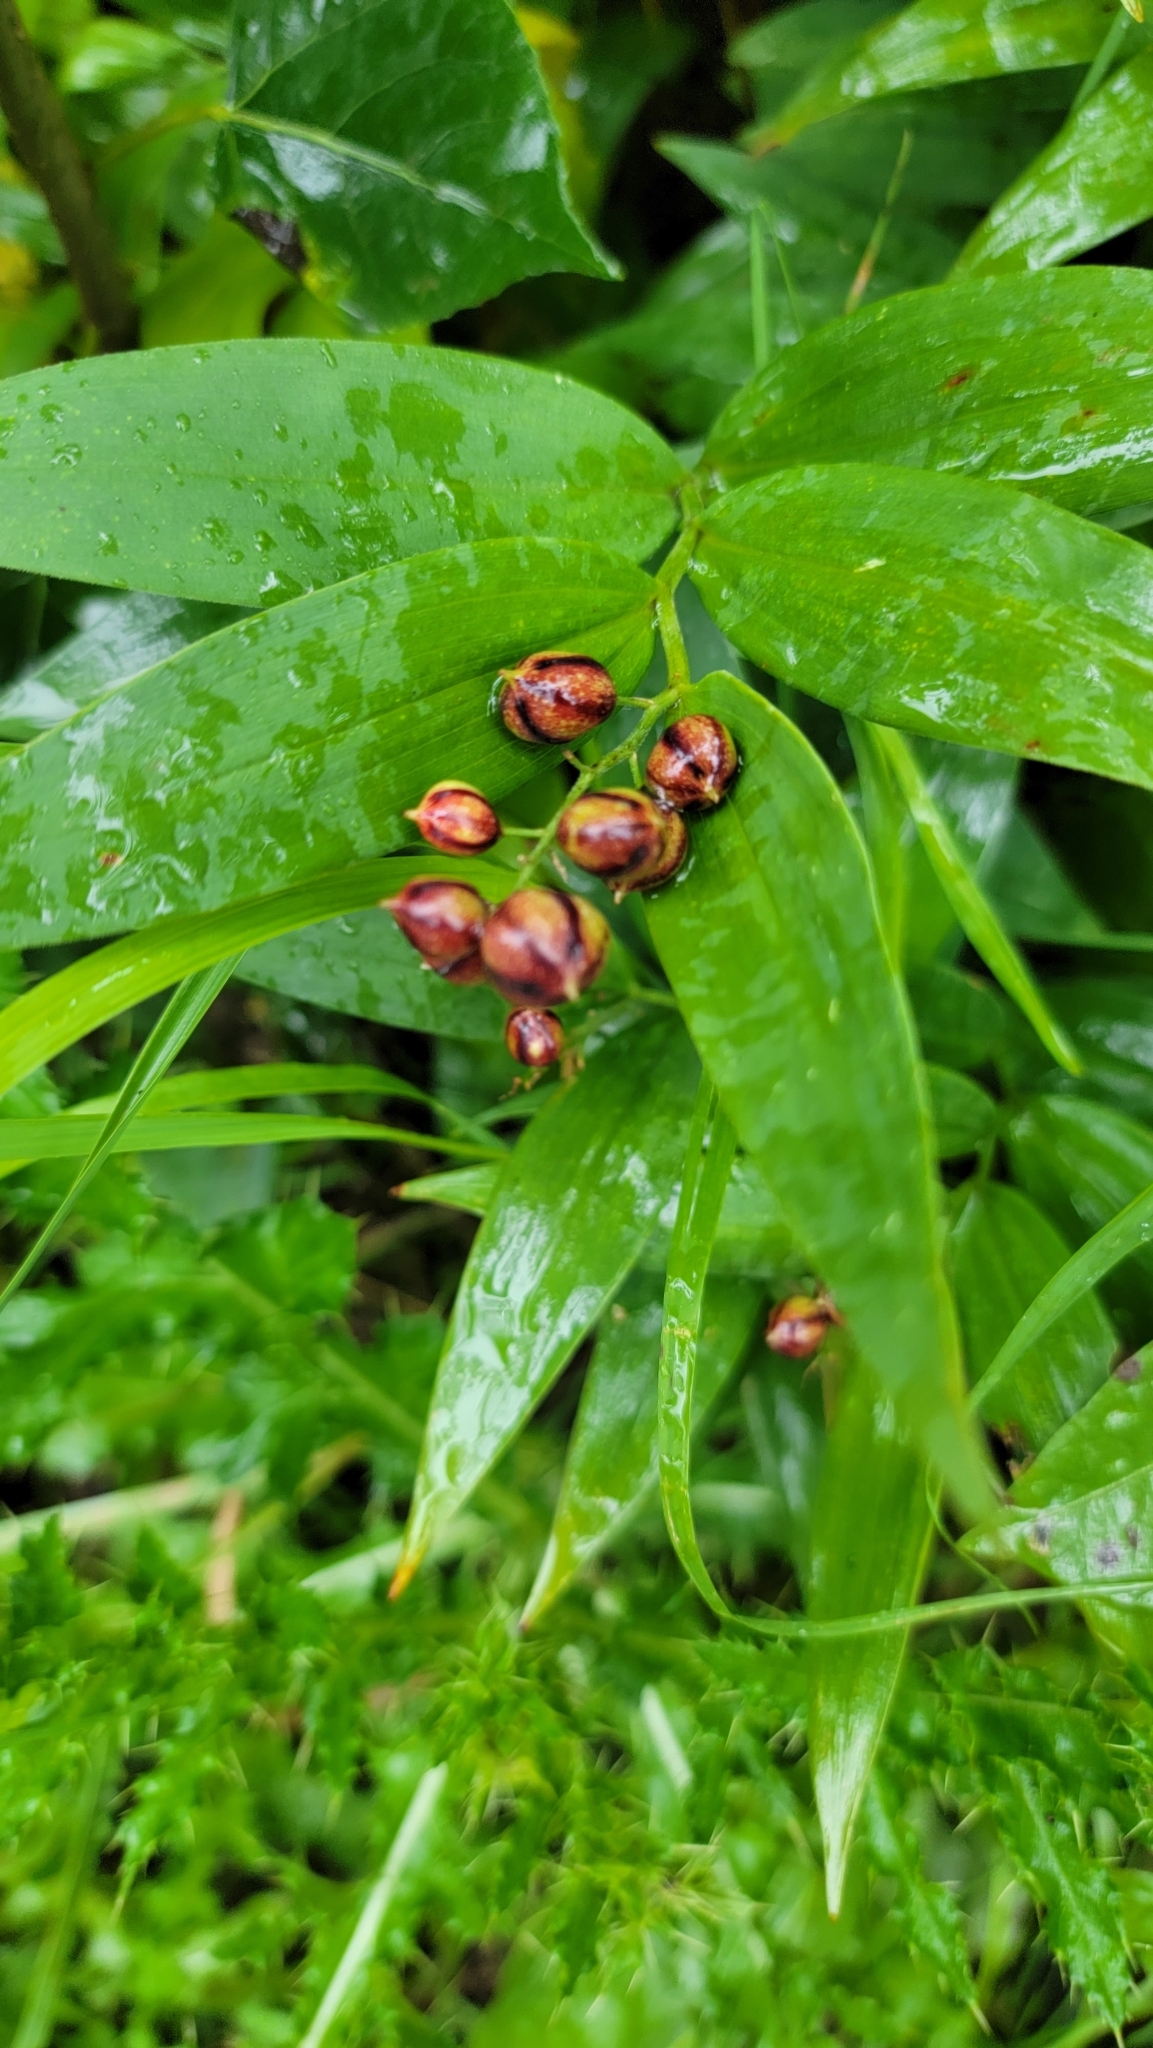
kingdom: Plantae
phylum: Tracheophyta
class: Liliopsida
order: Asparagales
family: Asparagaceae
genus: Maianthemum
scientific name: Maianthemum stellatum
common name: Little false solomon's seal
